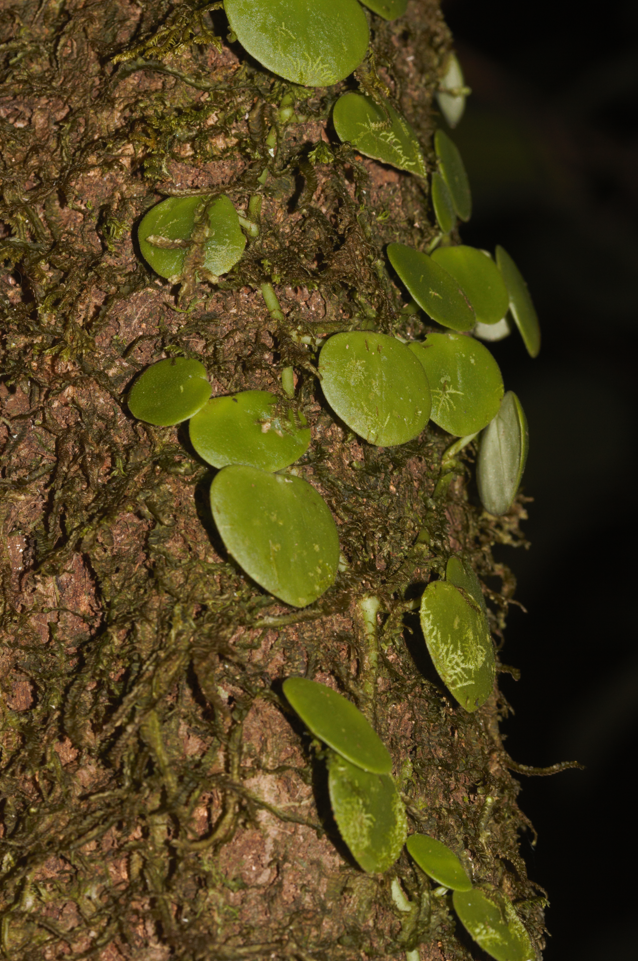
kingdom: Plantae
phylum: Tracheophyta
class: Magnoliopsida
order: Piperales
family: Piperaceae
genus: Peperomia
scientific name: Peperomia serpens
